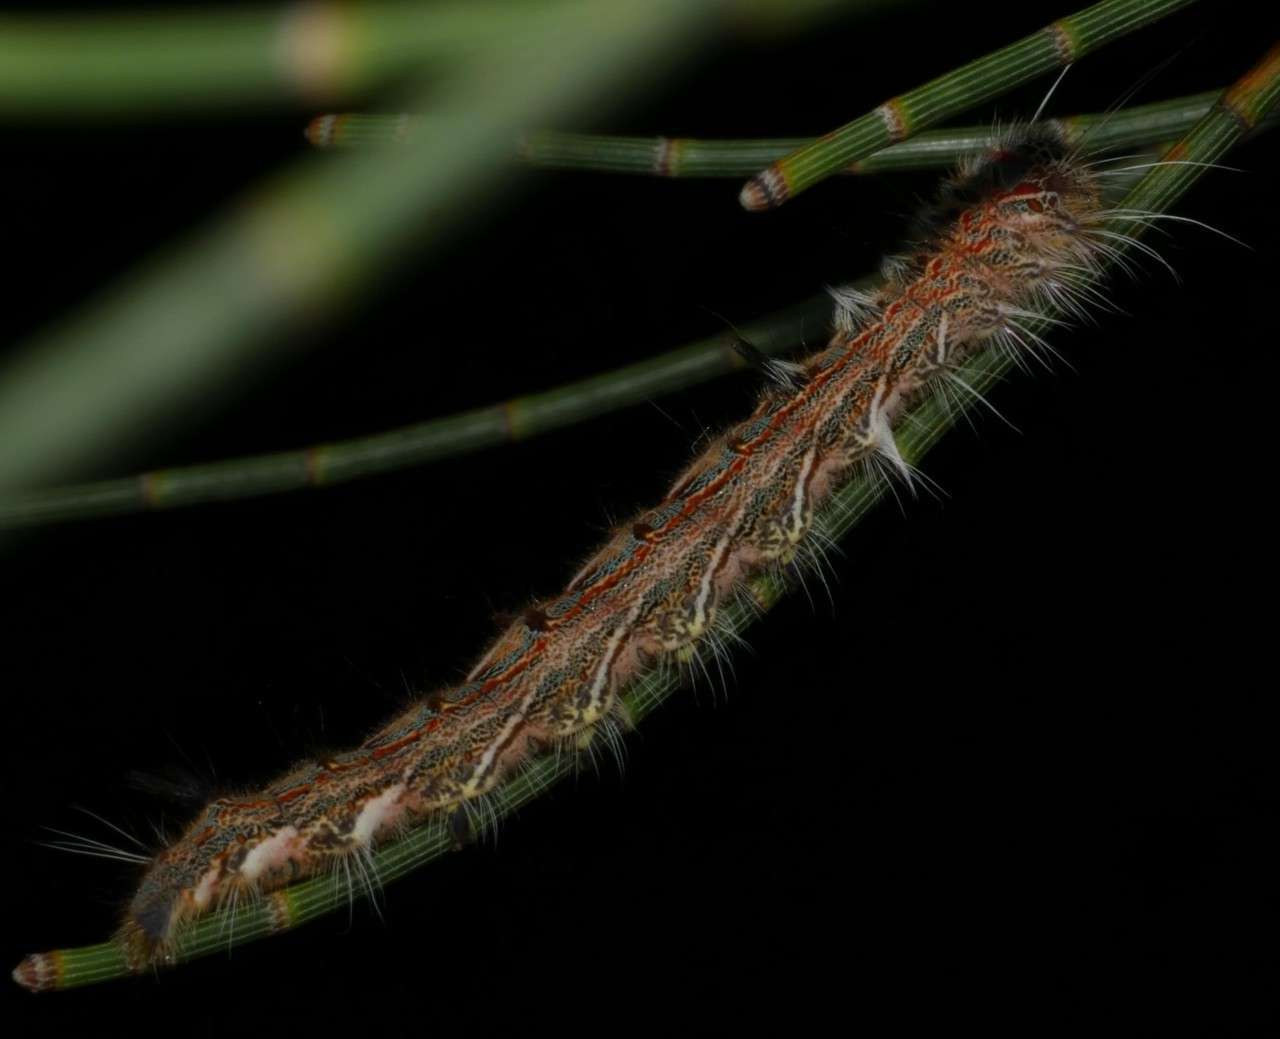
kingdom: Animalia
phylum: Arthropoda
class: Insecta
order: Lepidoptera
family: Lasiocampidae
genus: Pernattia
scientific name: Pernattia pusilla
